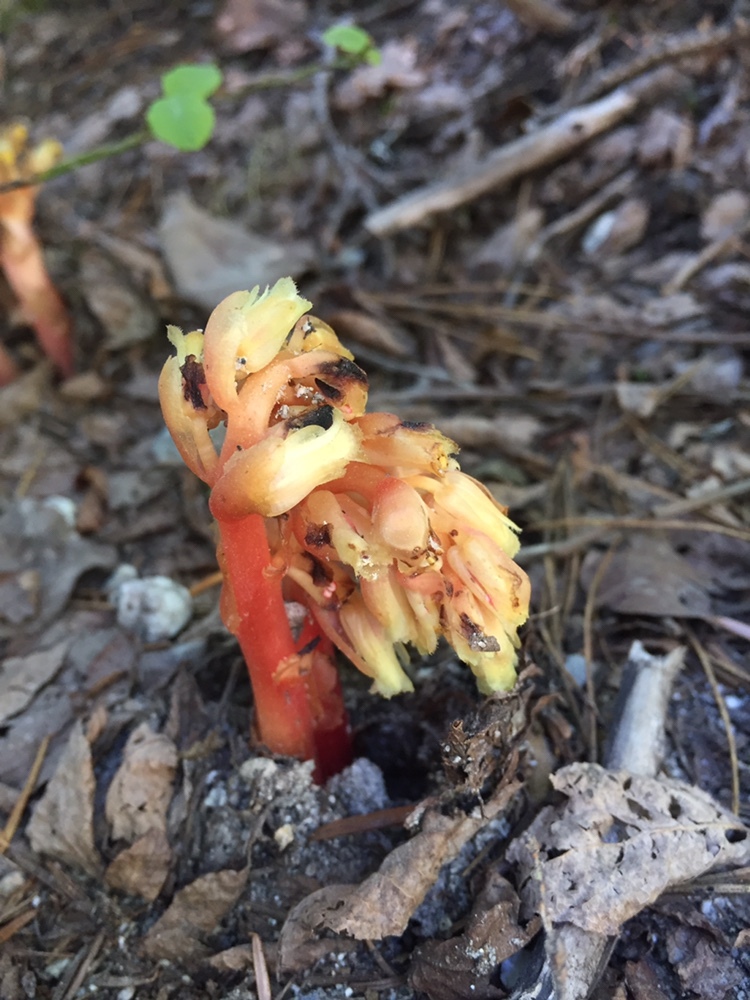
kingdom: Plantae
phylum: Tracheophyta
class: Magnoliopsida
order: Ericales
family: Ericaceae
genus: Hypopitys
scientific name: Hypopitys monotropa
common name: Yellow bird's-nest
